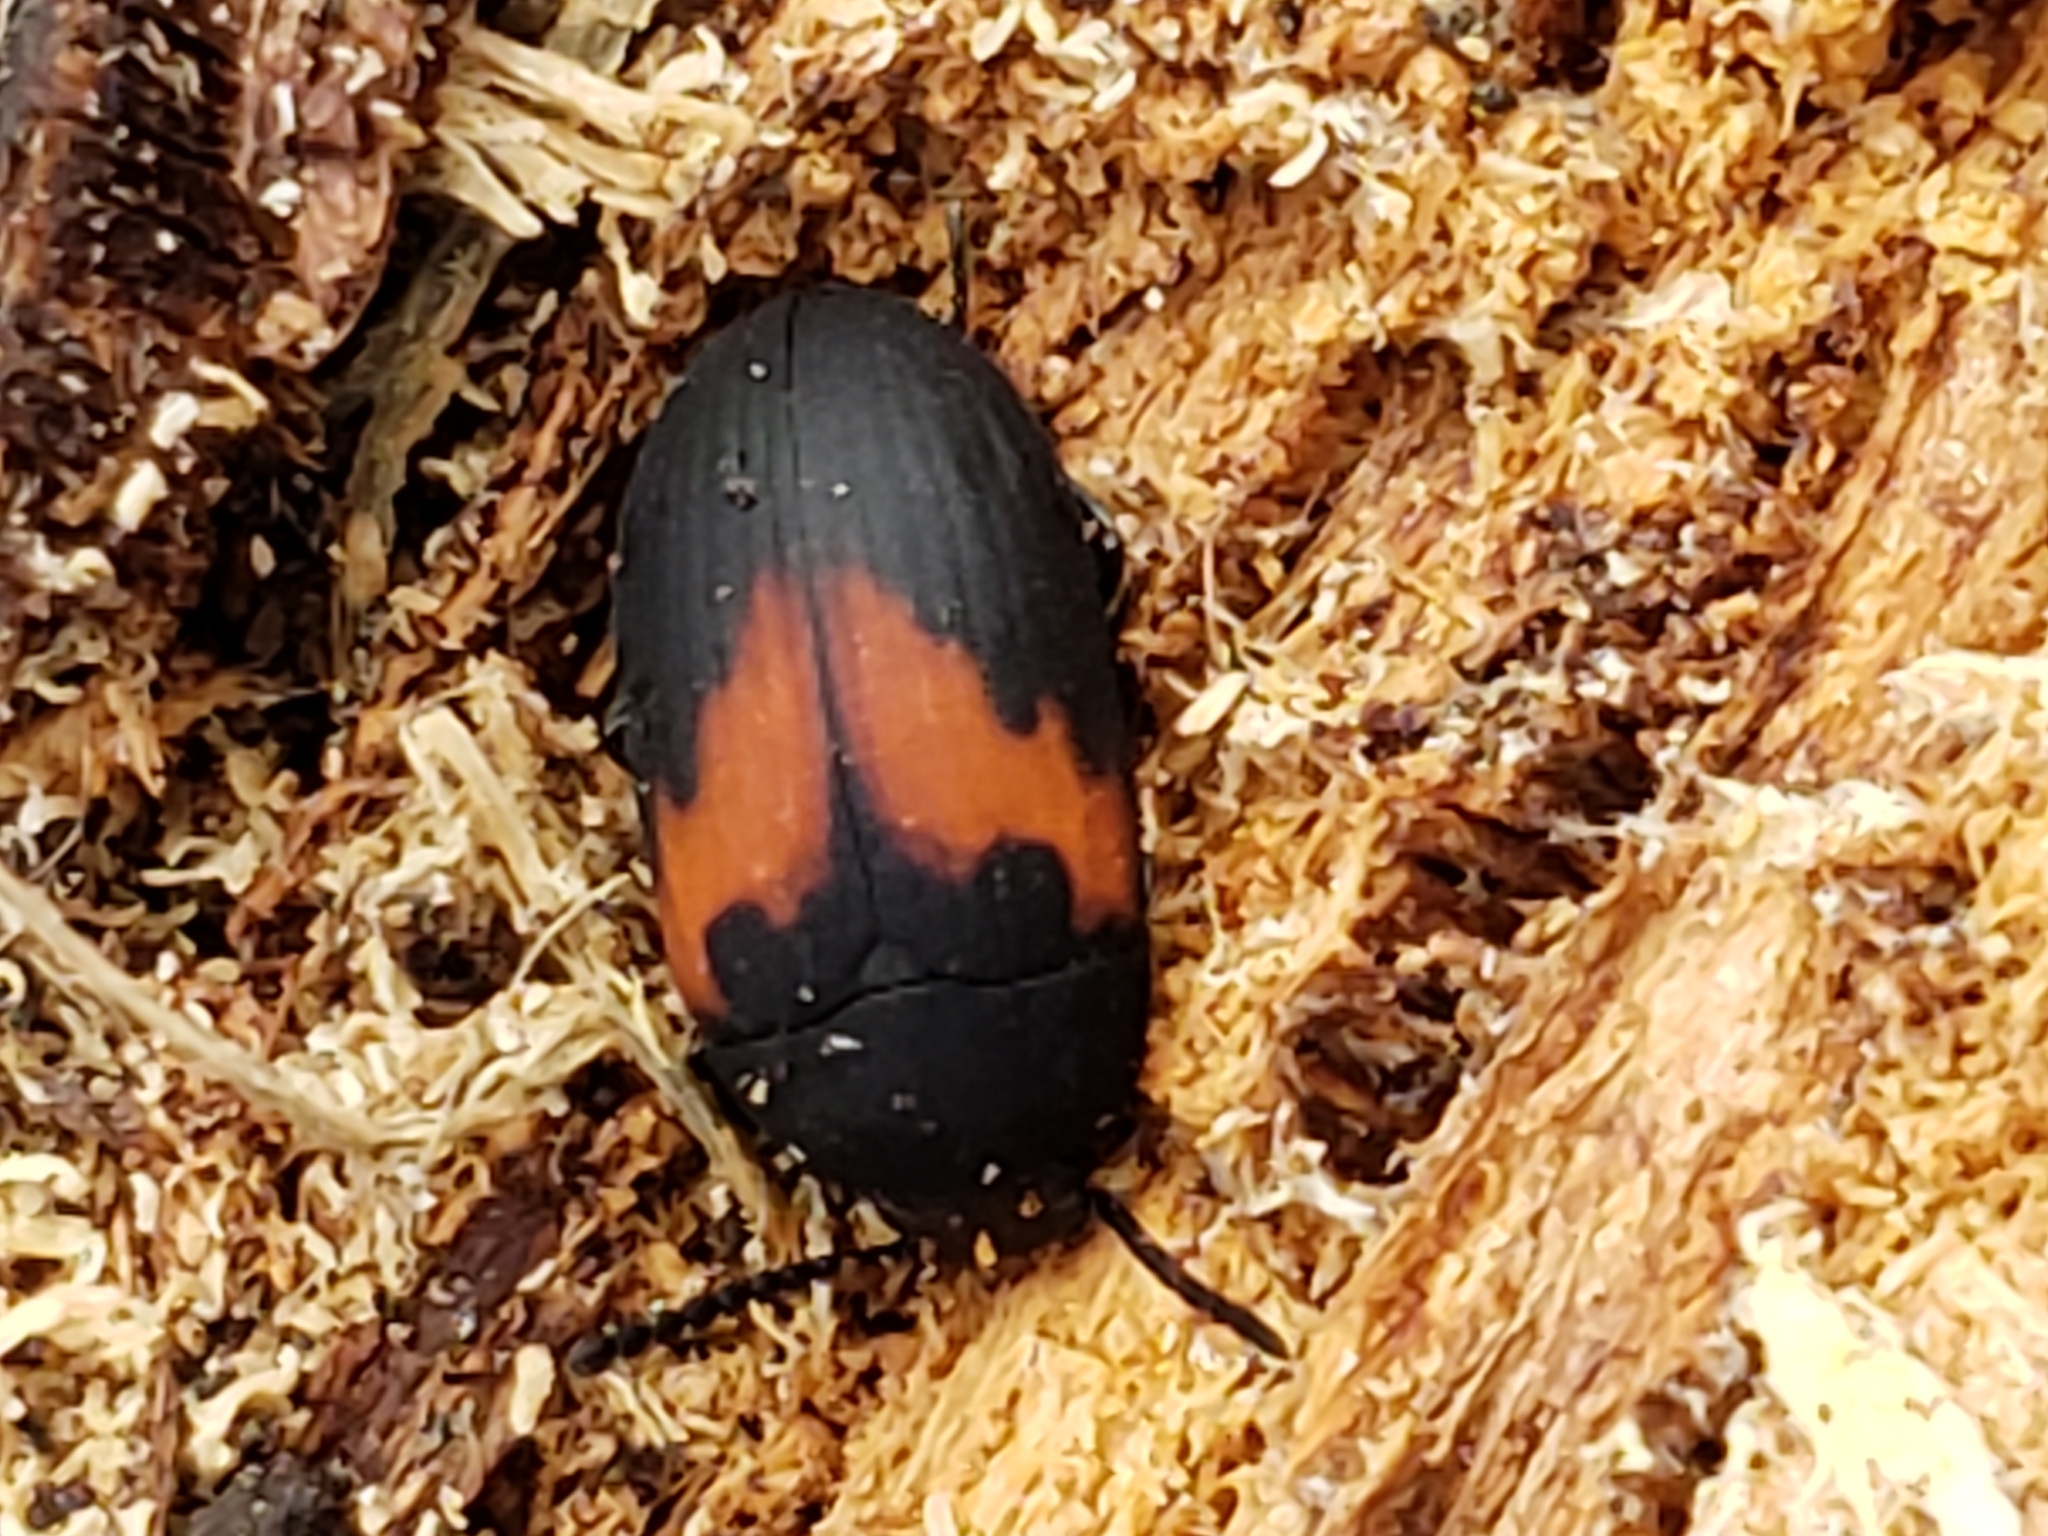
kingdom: Animalia
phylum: Arthropoda
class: Insecta
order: Coleoptera
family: Tenebrionidae
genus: Platydema
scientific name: Platydema elliptica
